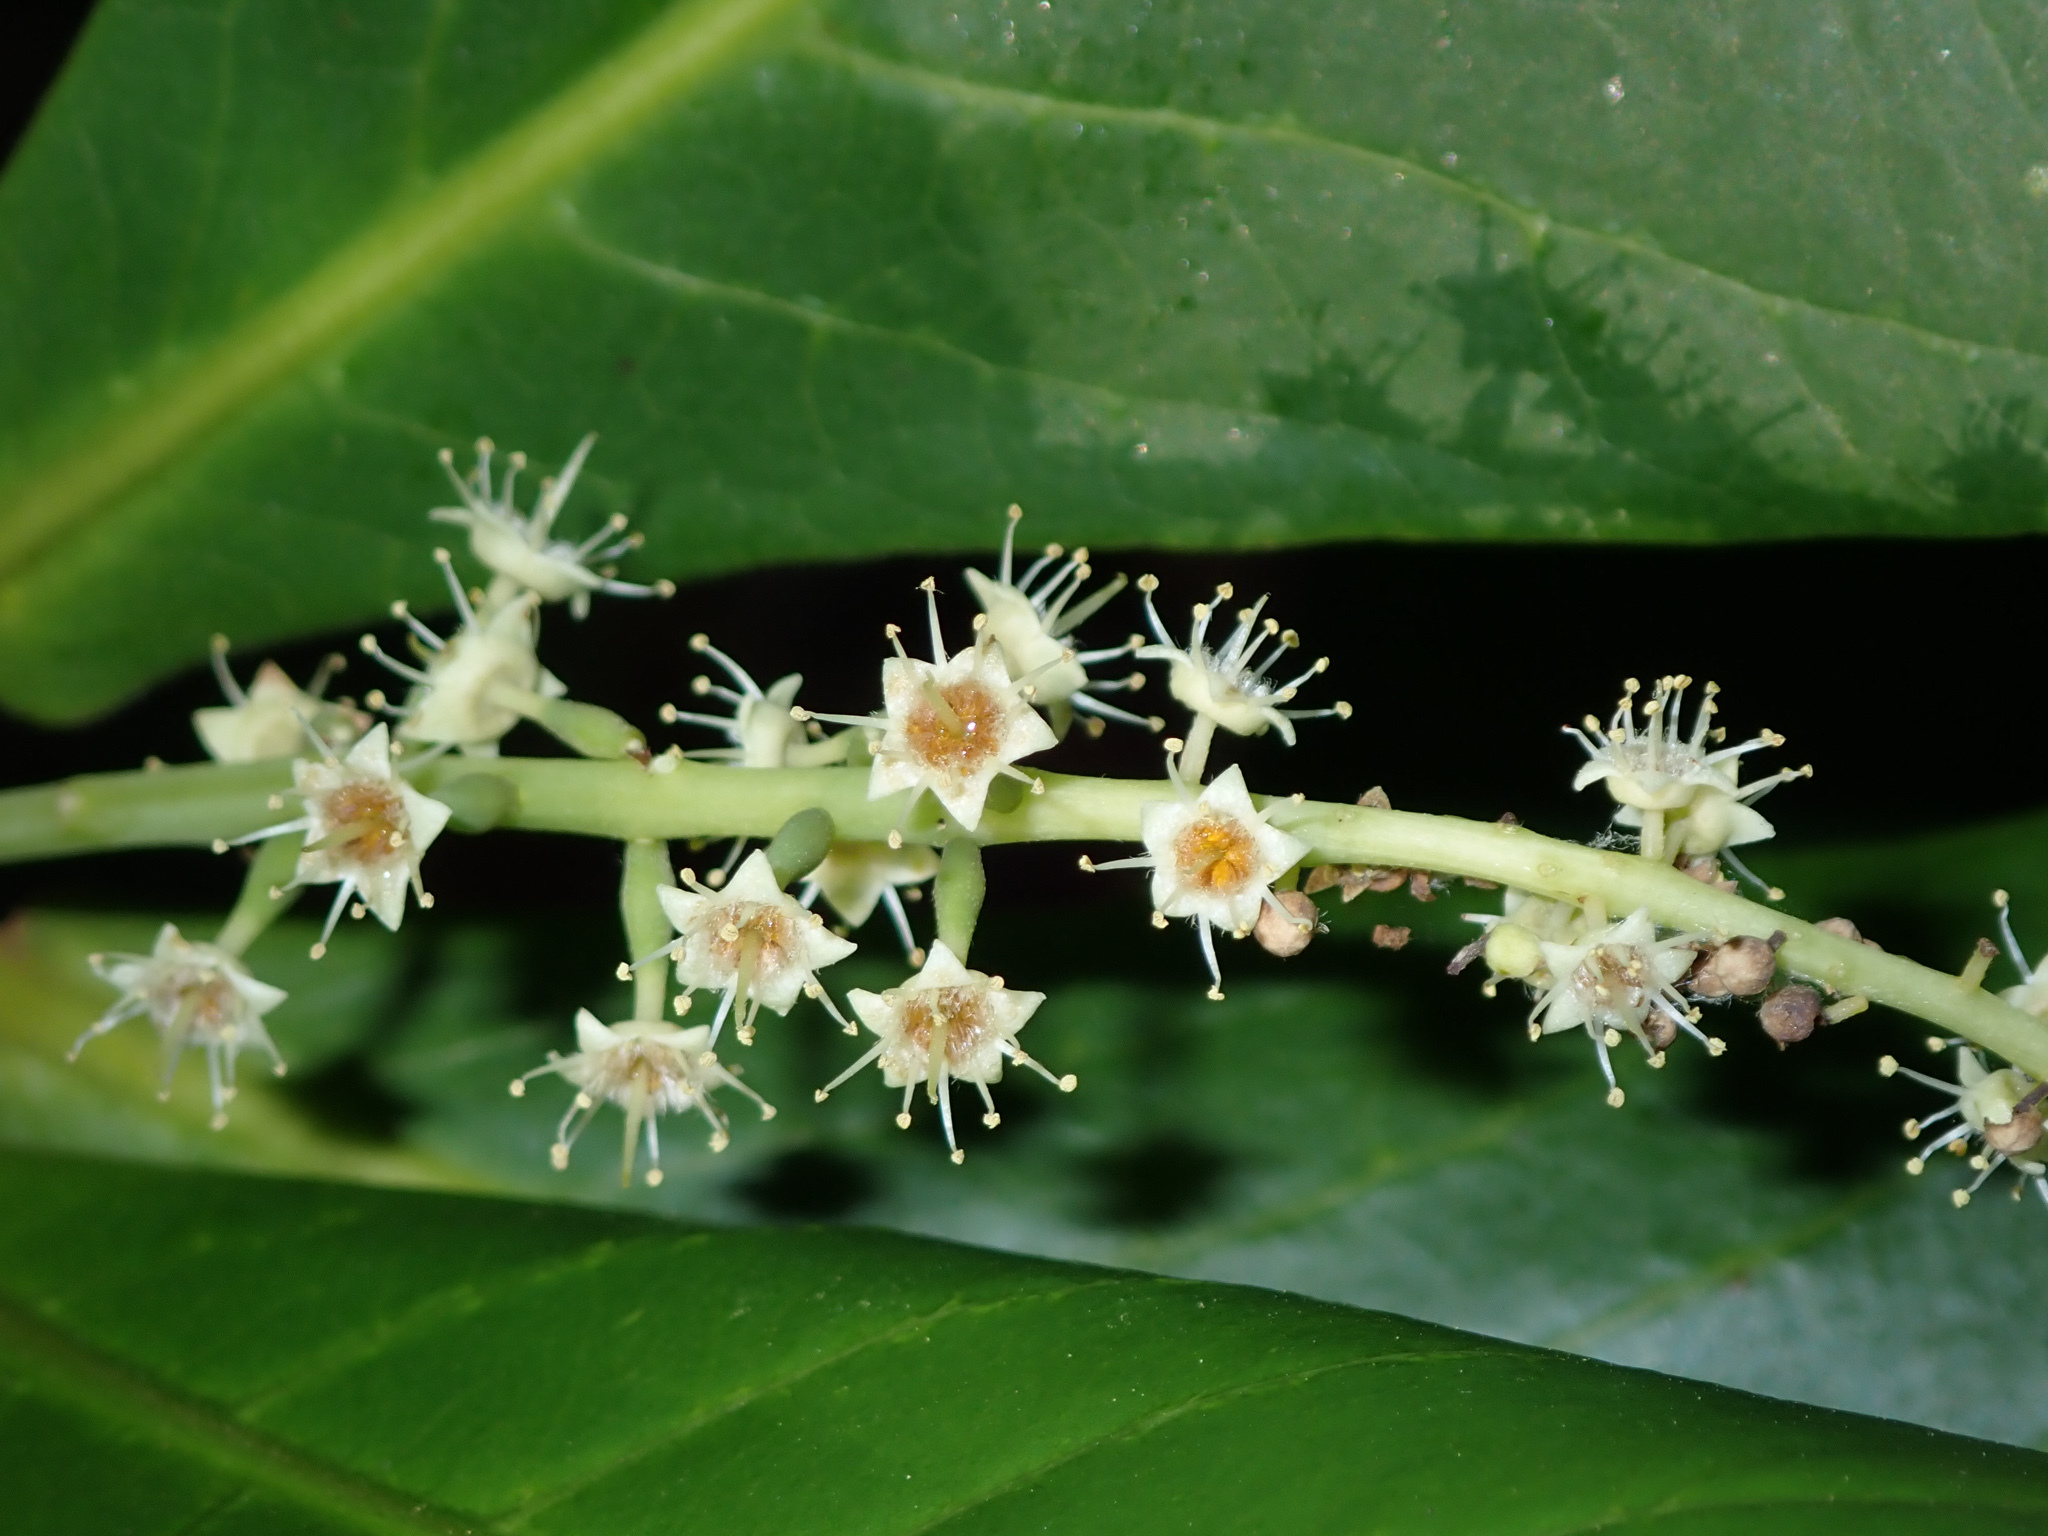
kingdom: Plantae
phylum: Tracheophyta
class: Magnoliopsida
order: Myrtales
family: Combretaceae
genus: Terminalia
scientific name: Terminalia catappa
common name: Tropical almond
